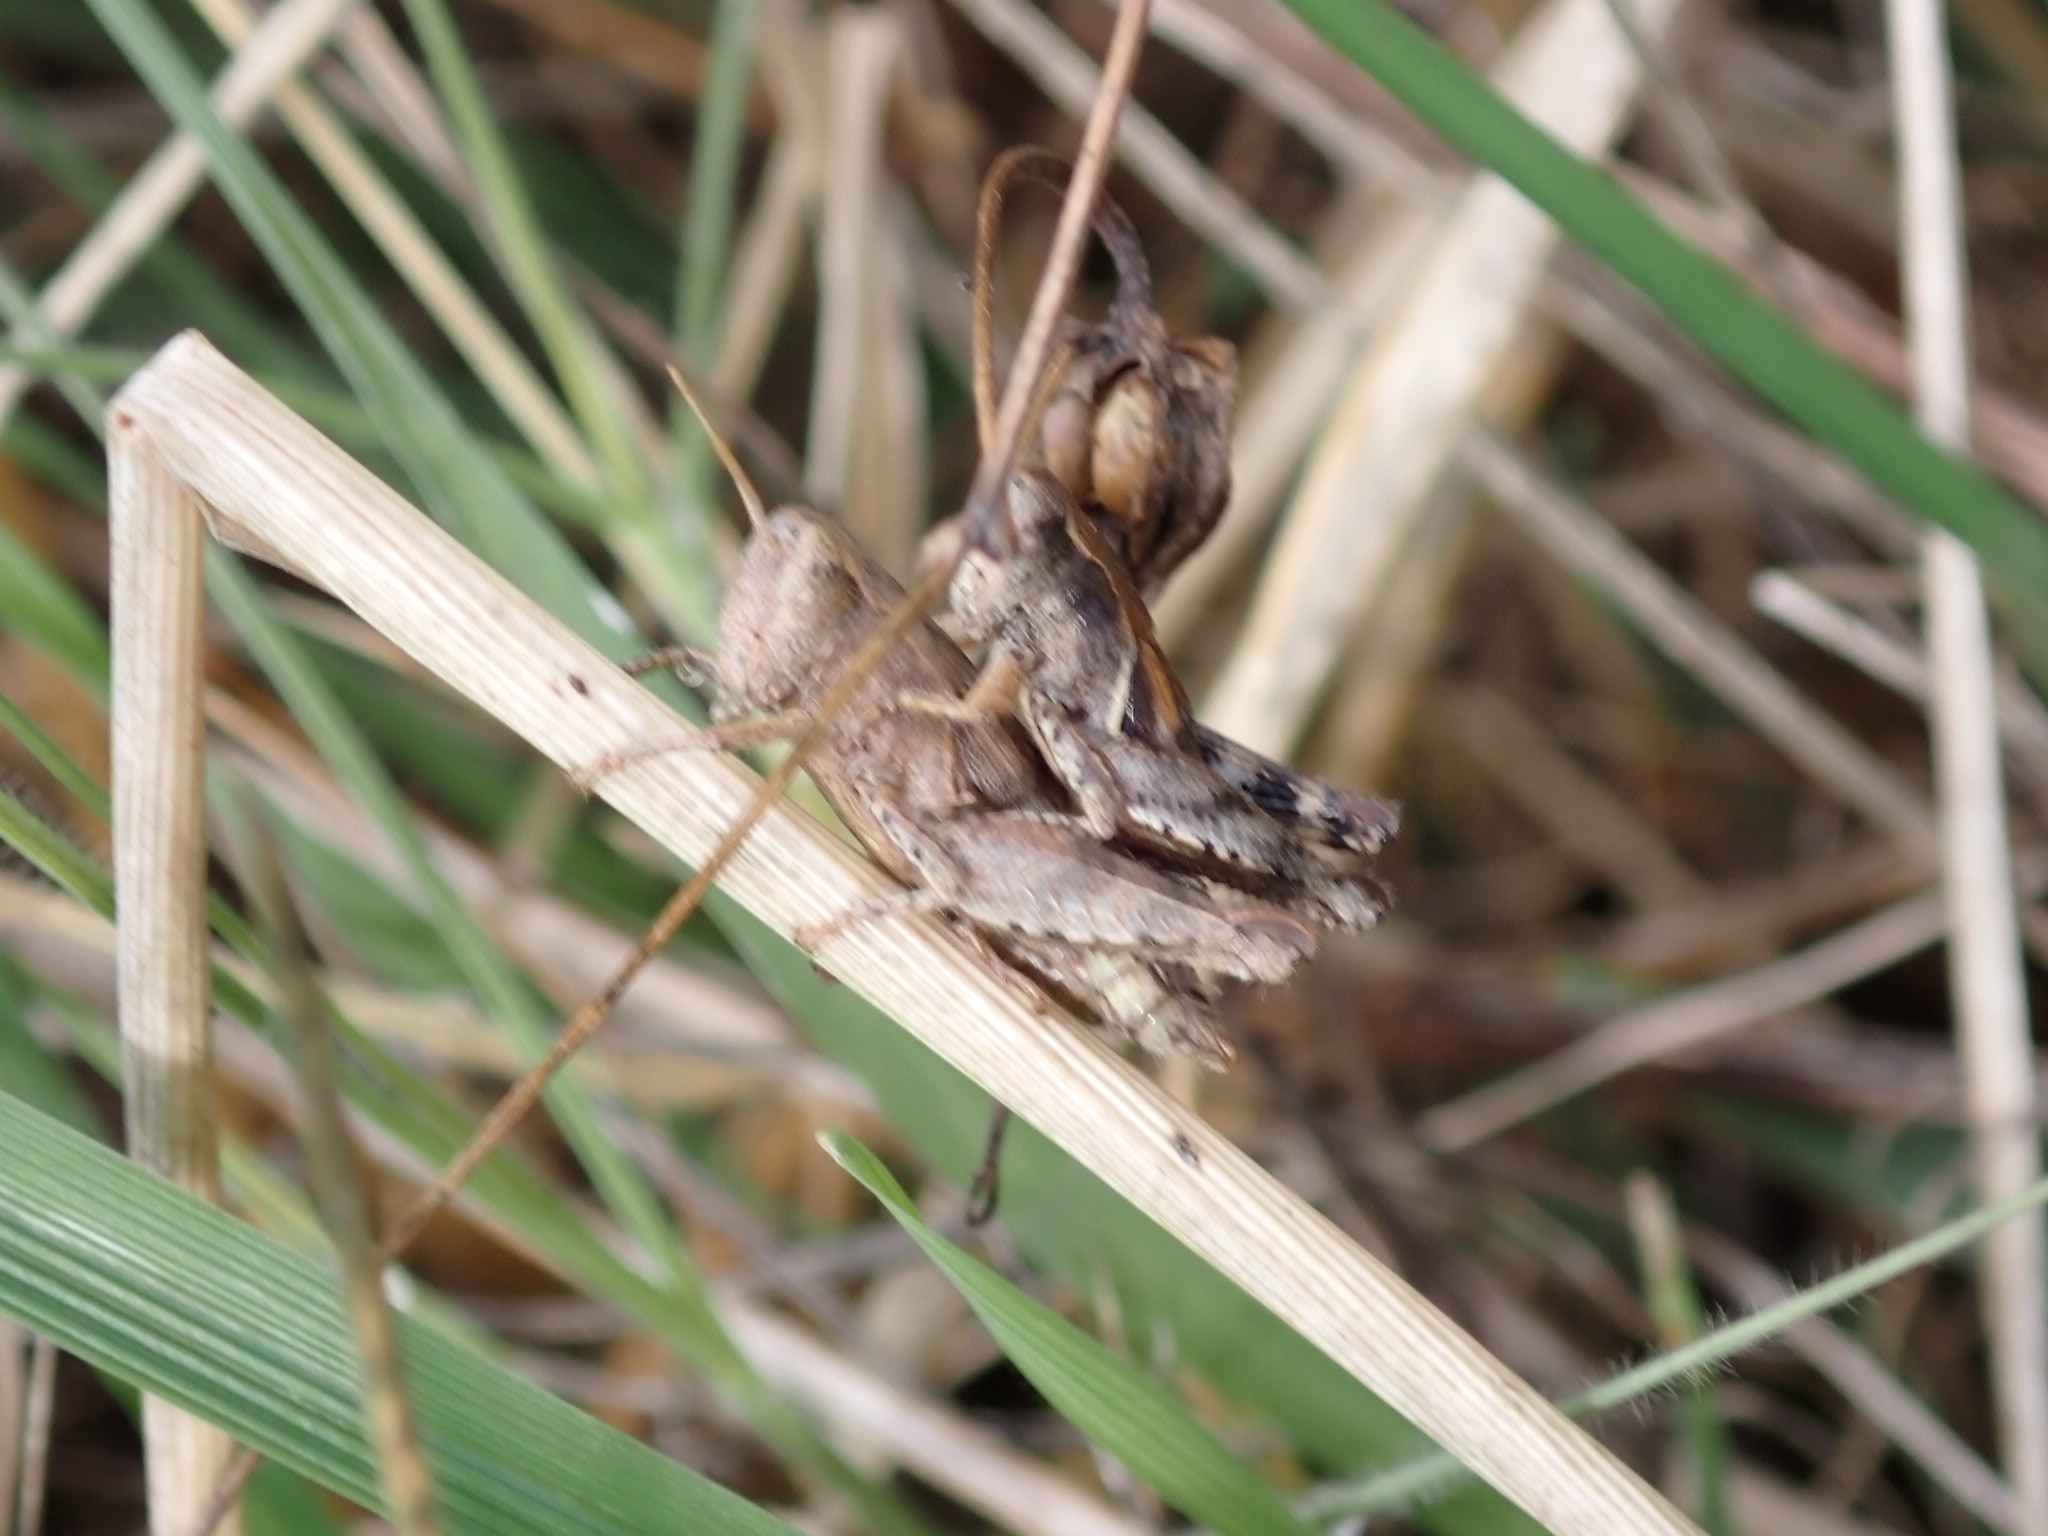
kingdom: Animalia
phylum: Arthropoda
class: Insecta
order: Orthoptera
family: Acrididae
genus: Pezotettix
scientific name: Pezotettix giornae
